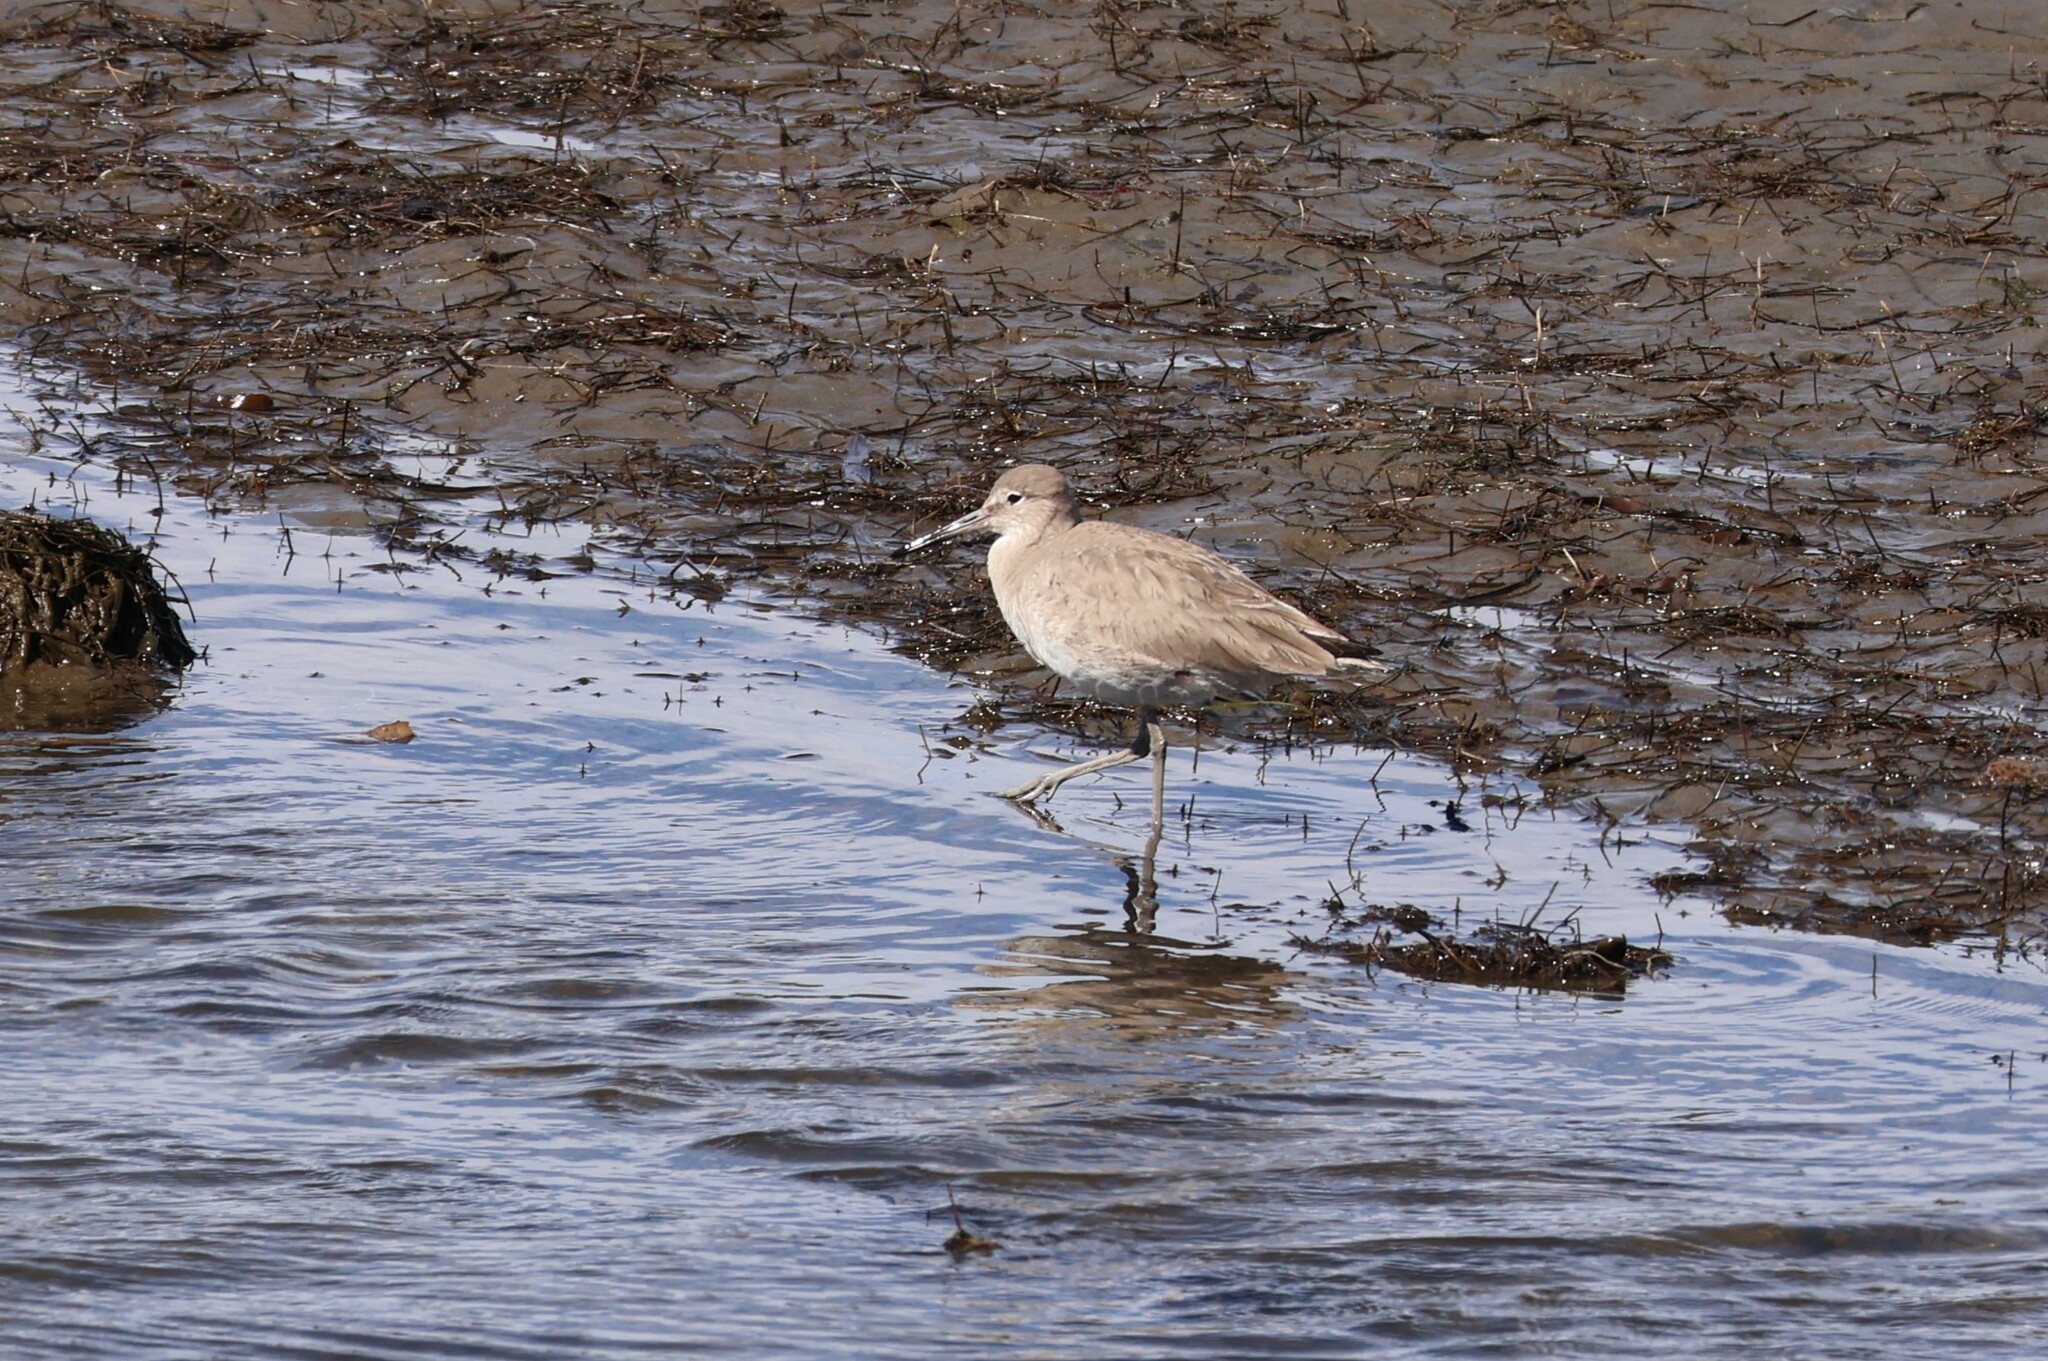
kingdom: Animalia
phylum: Chordata
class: Aves
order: Charadriiformes
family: Scolopacidae
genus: Tringa
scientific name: Tringa semipalmata
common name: Willet
